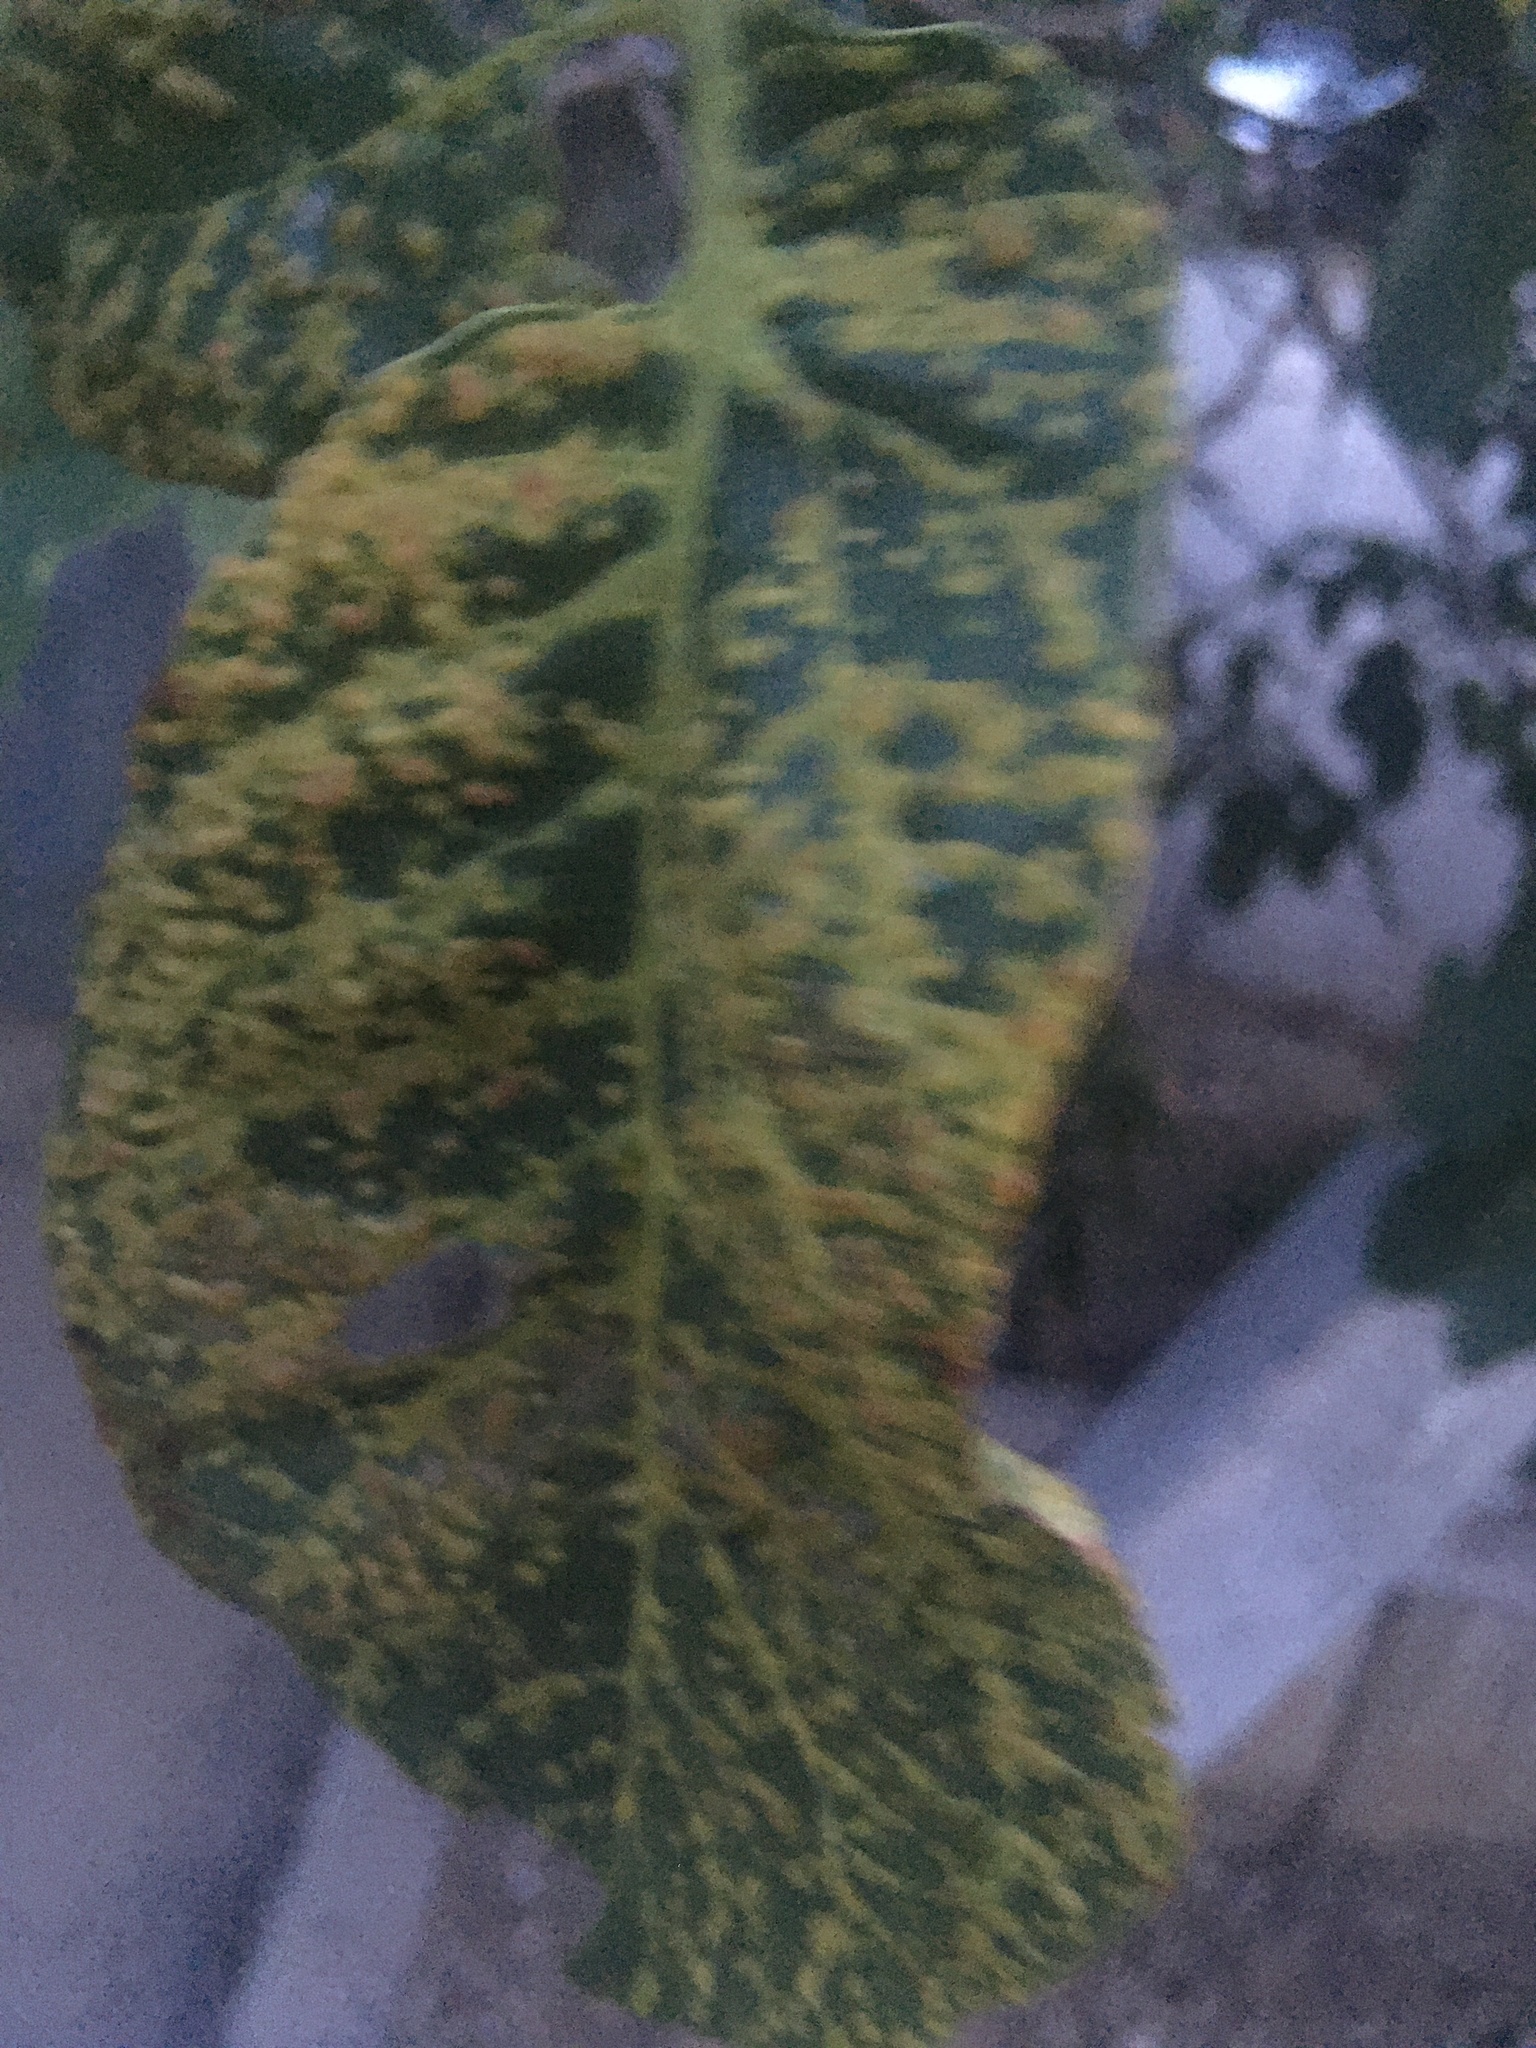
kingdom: Animalia
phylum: Arthropoda
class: Arachnida
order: Trombidiformes
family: Eriophyidae
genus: Aceria
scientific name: Aceria tristriata
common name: Persian walnut leaf blister mite
